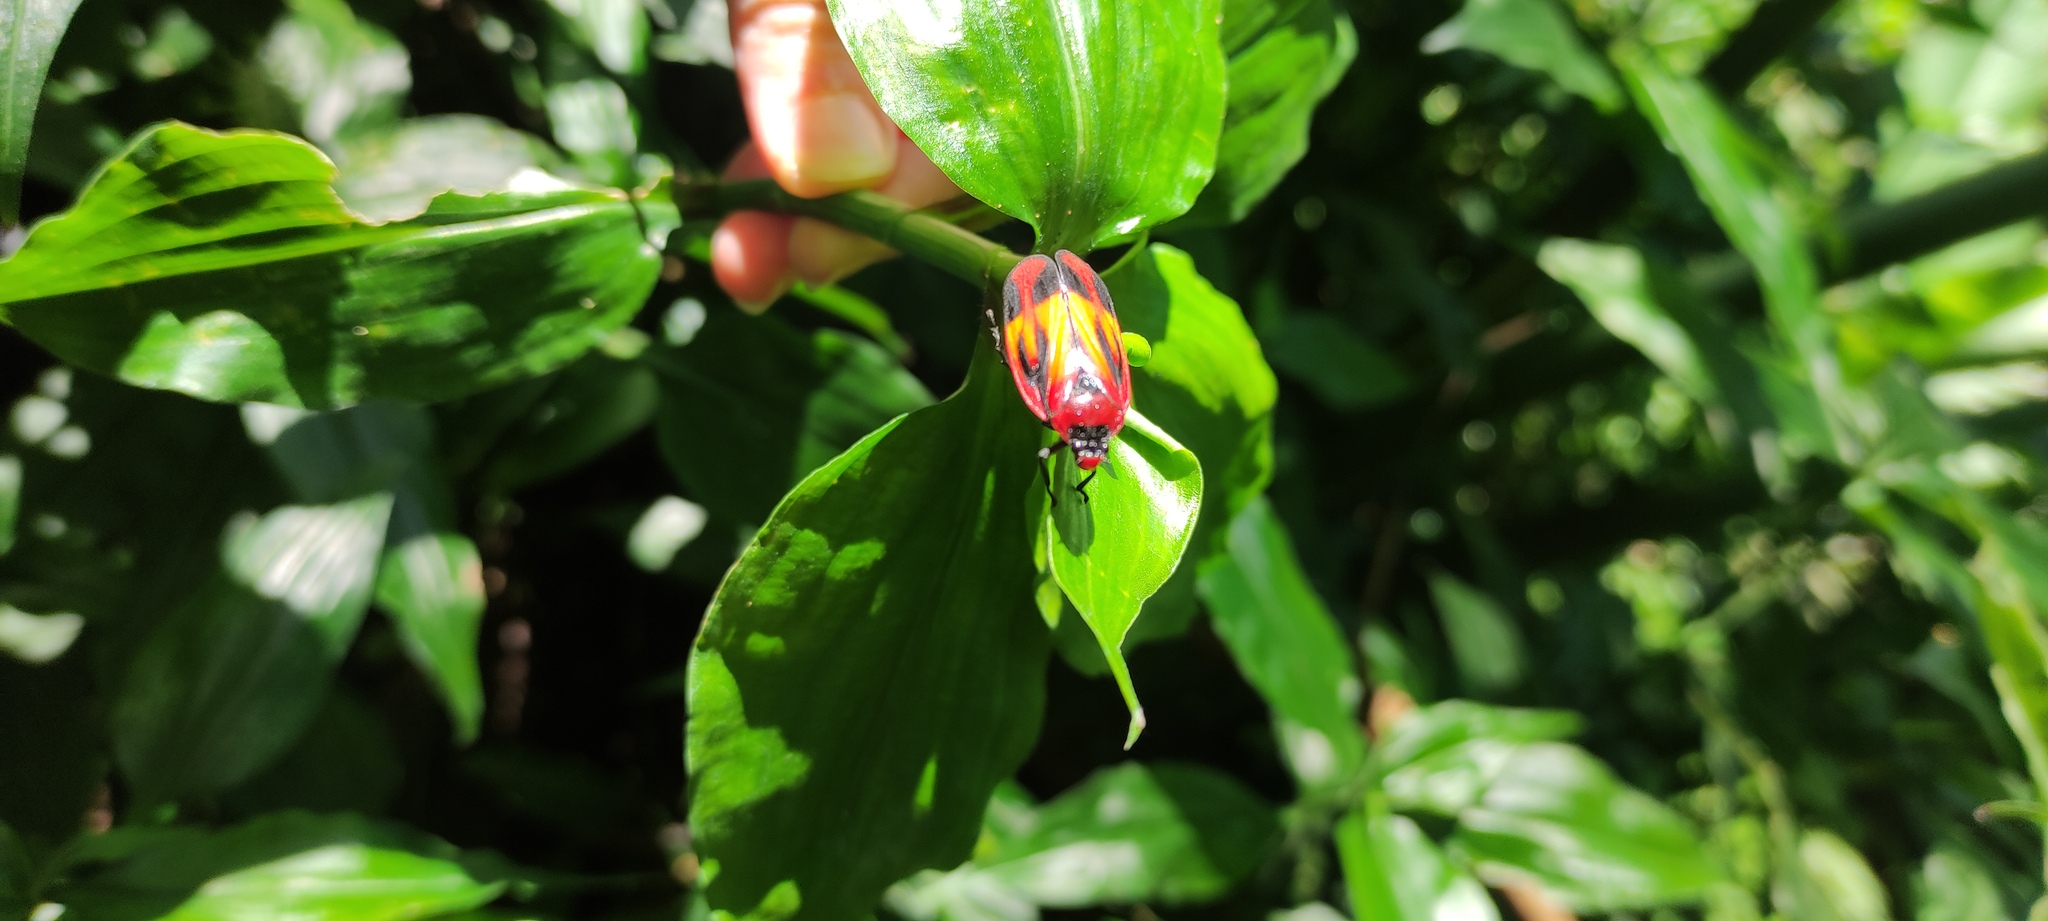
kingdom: Animalia
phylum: Arthropoda
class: Insecta
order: Hemiptera
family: Cercopidae
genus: Tomaspis
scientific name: Tomaspis furcata
